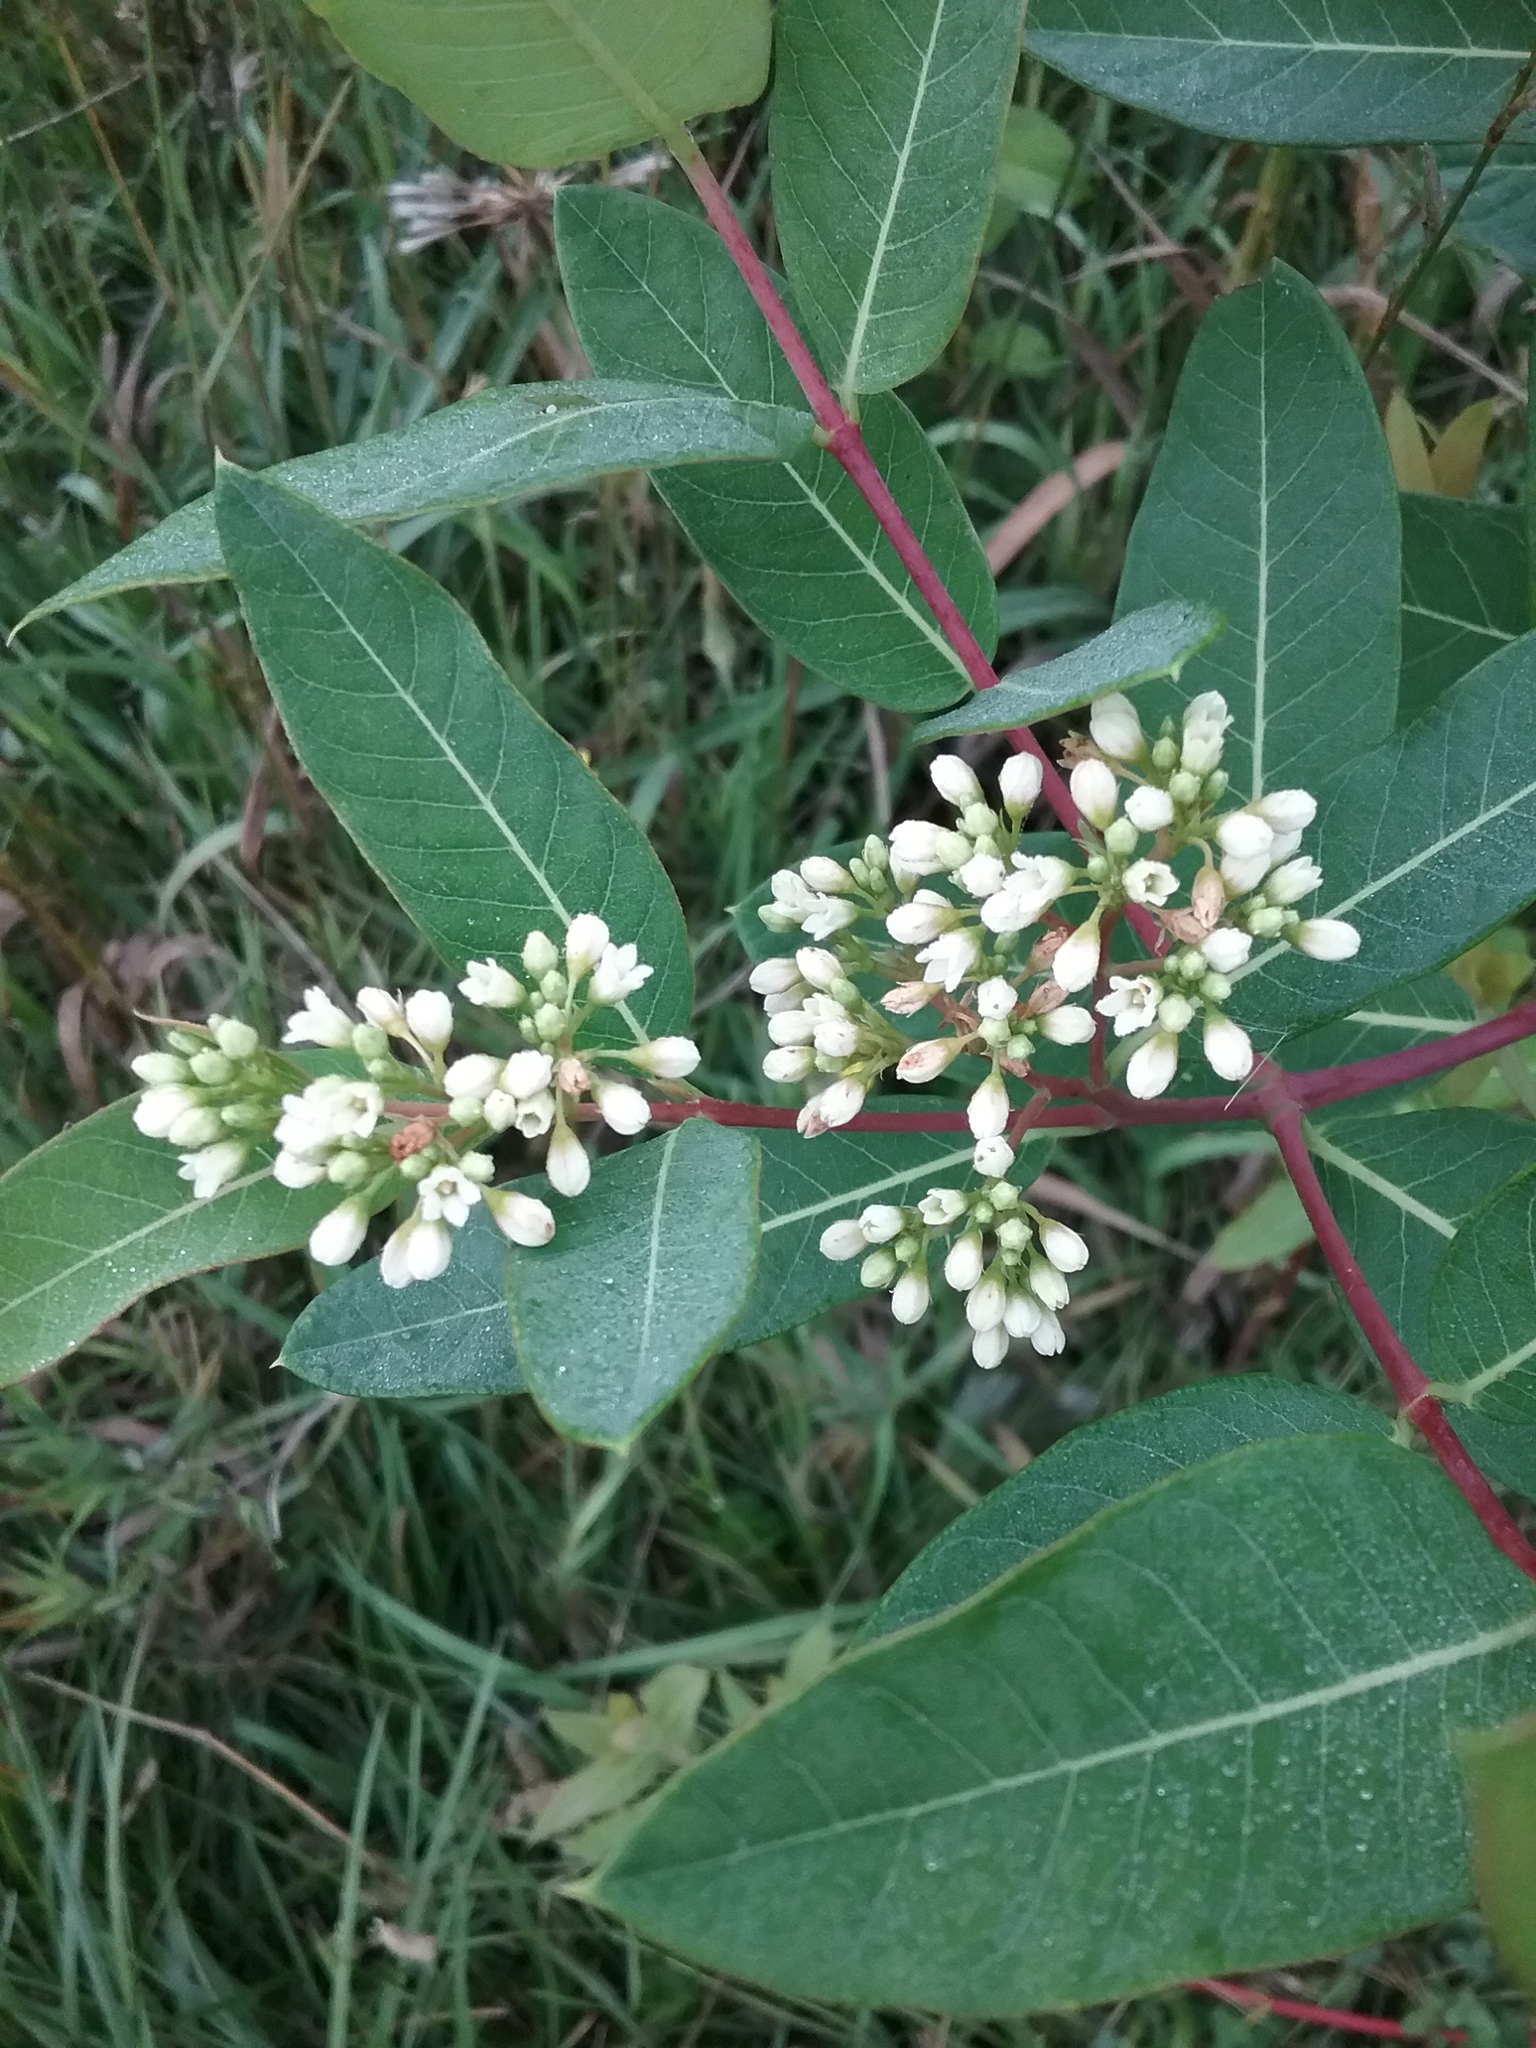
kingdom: Plantae
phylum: Tracheophyta
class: Magnoliopsida
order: Gentianales
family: Apocynaceae
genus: Apocynum
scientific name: Apocynum cannabinum
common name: Hemp dogbane
